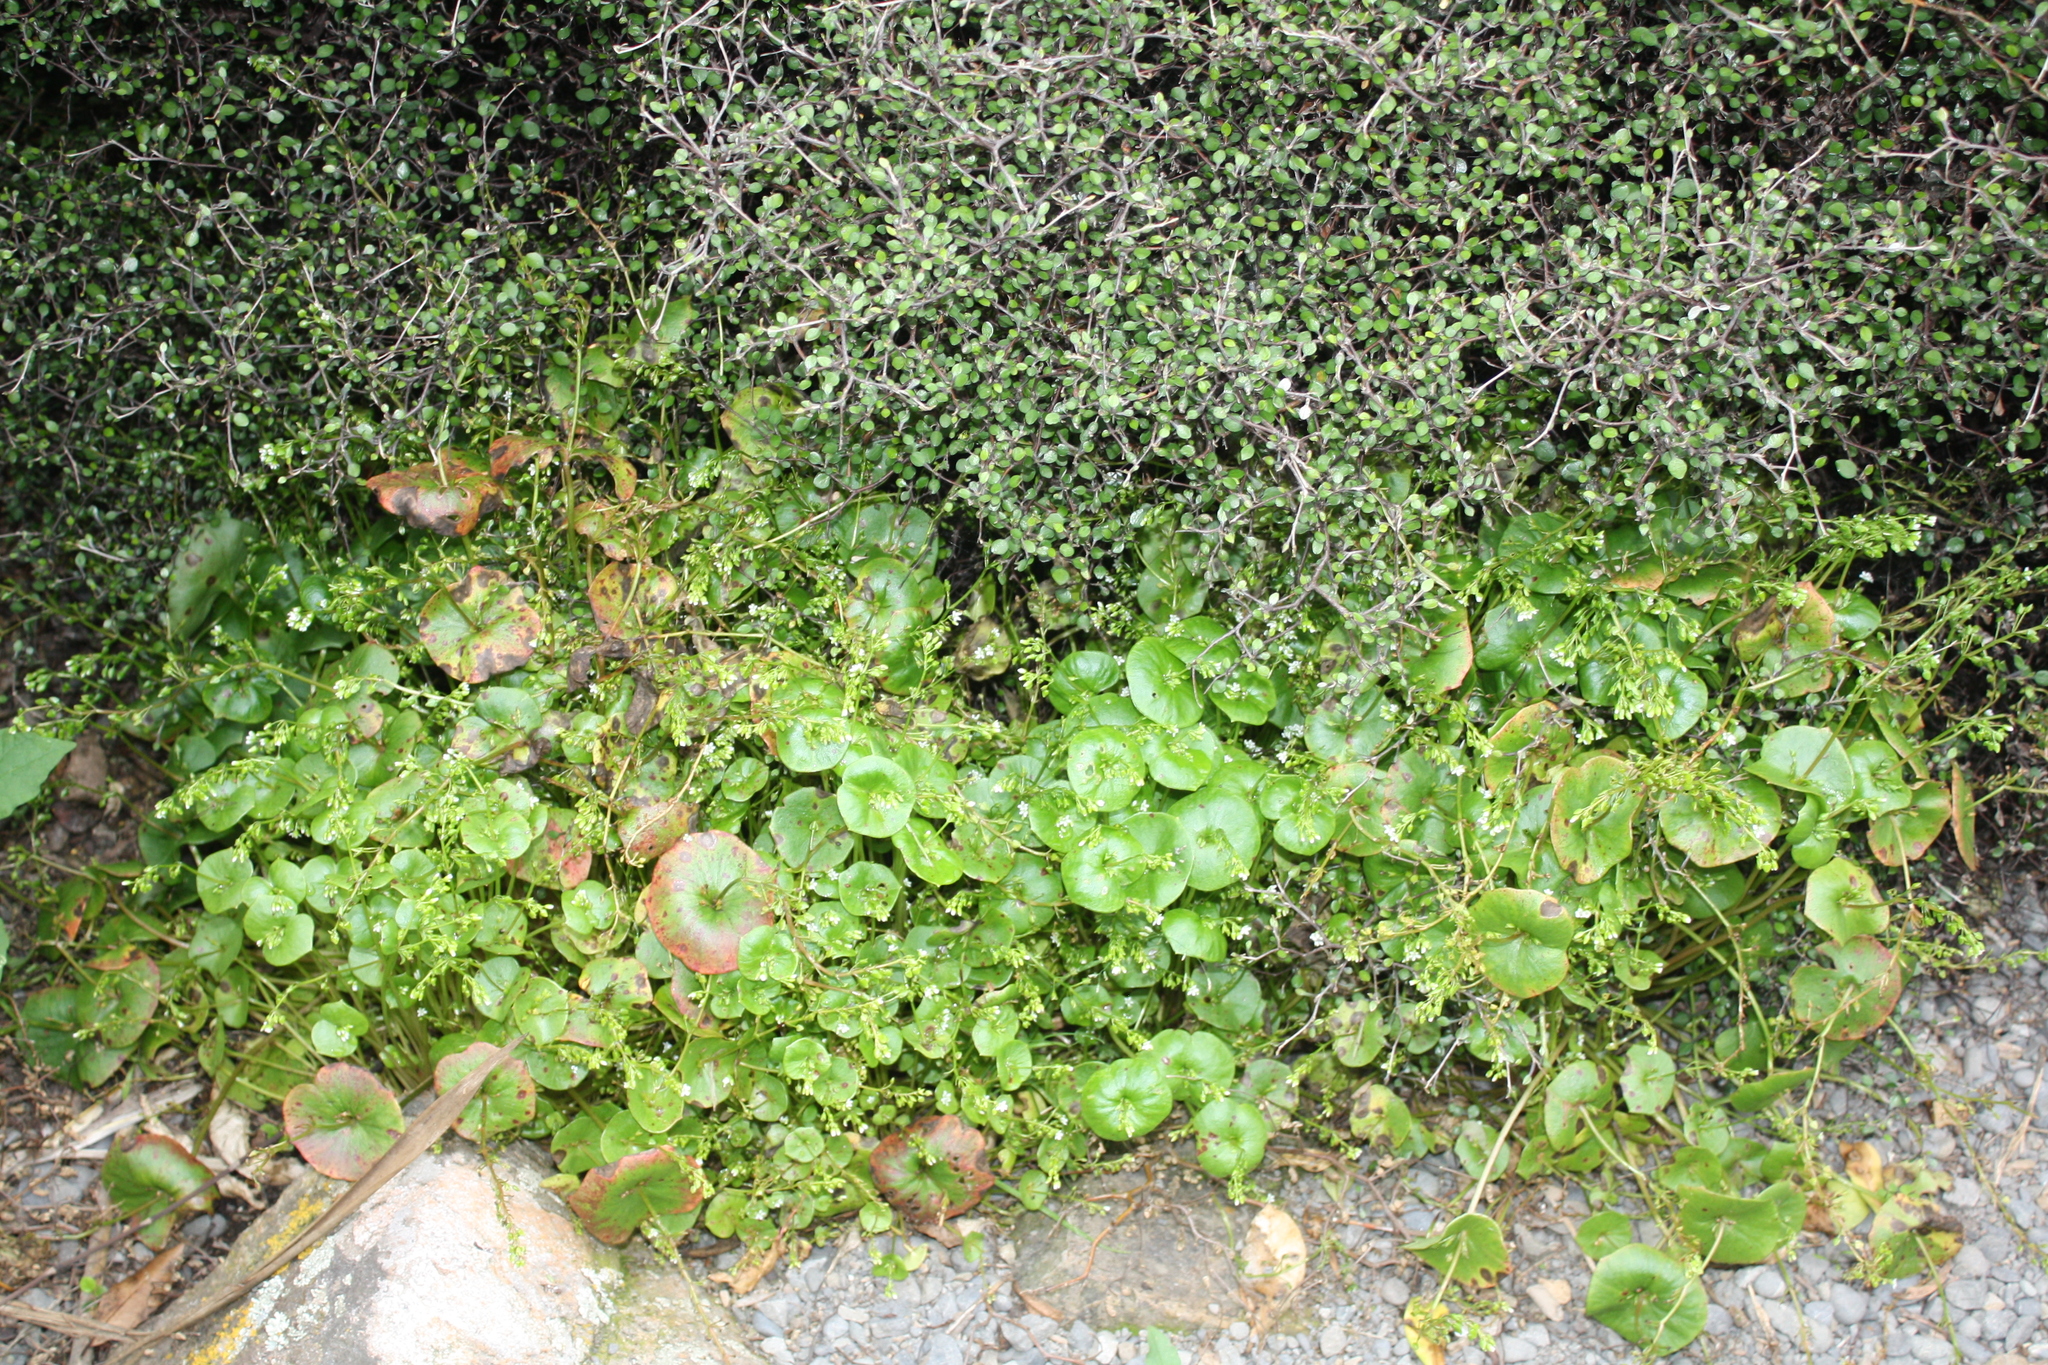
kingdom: Plantae
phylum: Tracheophyta
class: Magnoliopsida
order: Caryophyllales
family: Montiaceae
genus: Claytonia
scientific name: Claytonia perfoliata
